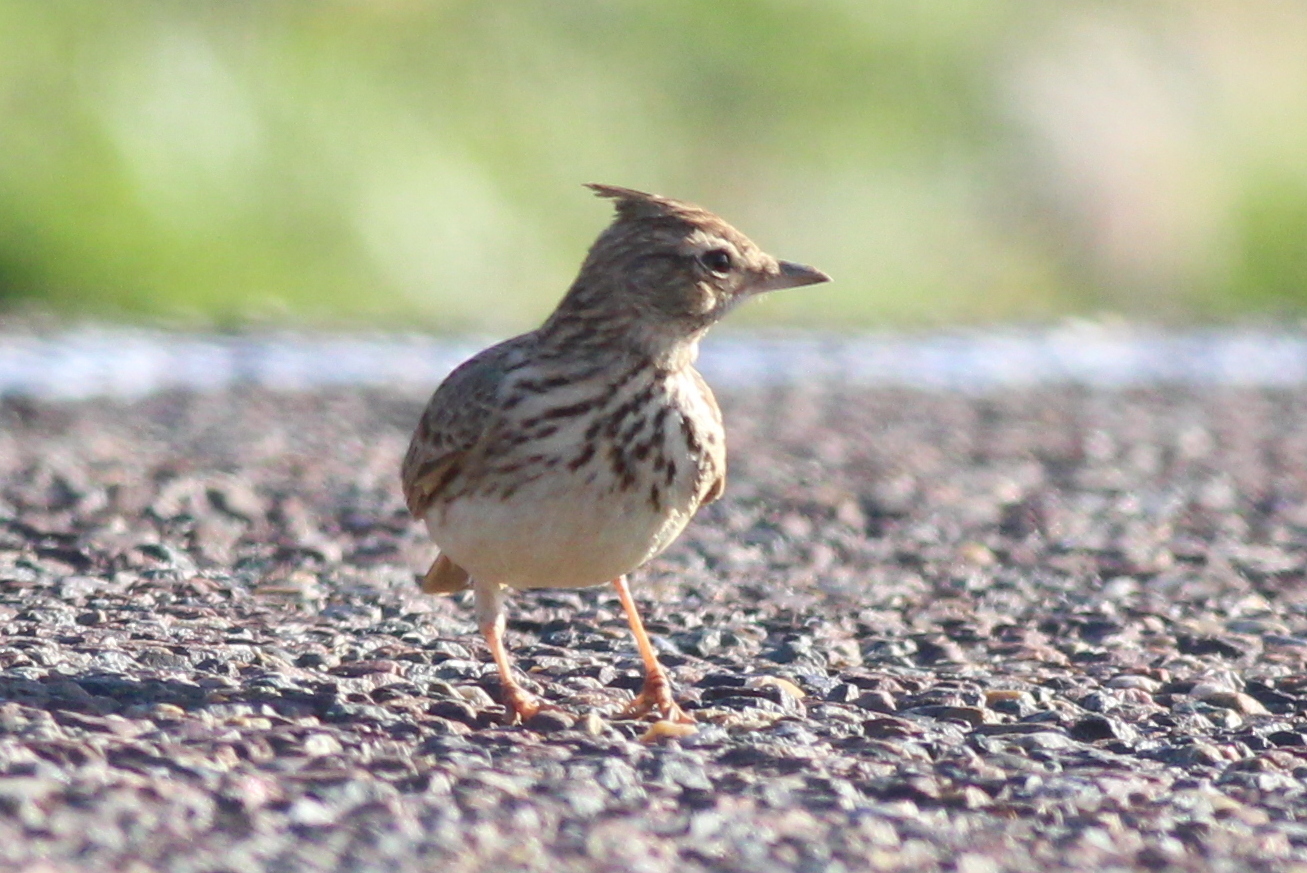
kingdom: Animalia
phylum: Chordata
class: Aves
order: Passeriformes
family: Alaudidae
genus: Galerida
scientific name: Galerida theklae
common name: Thekla lark
